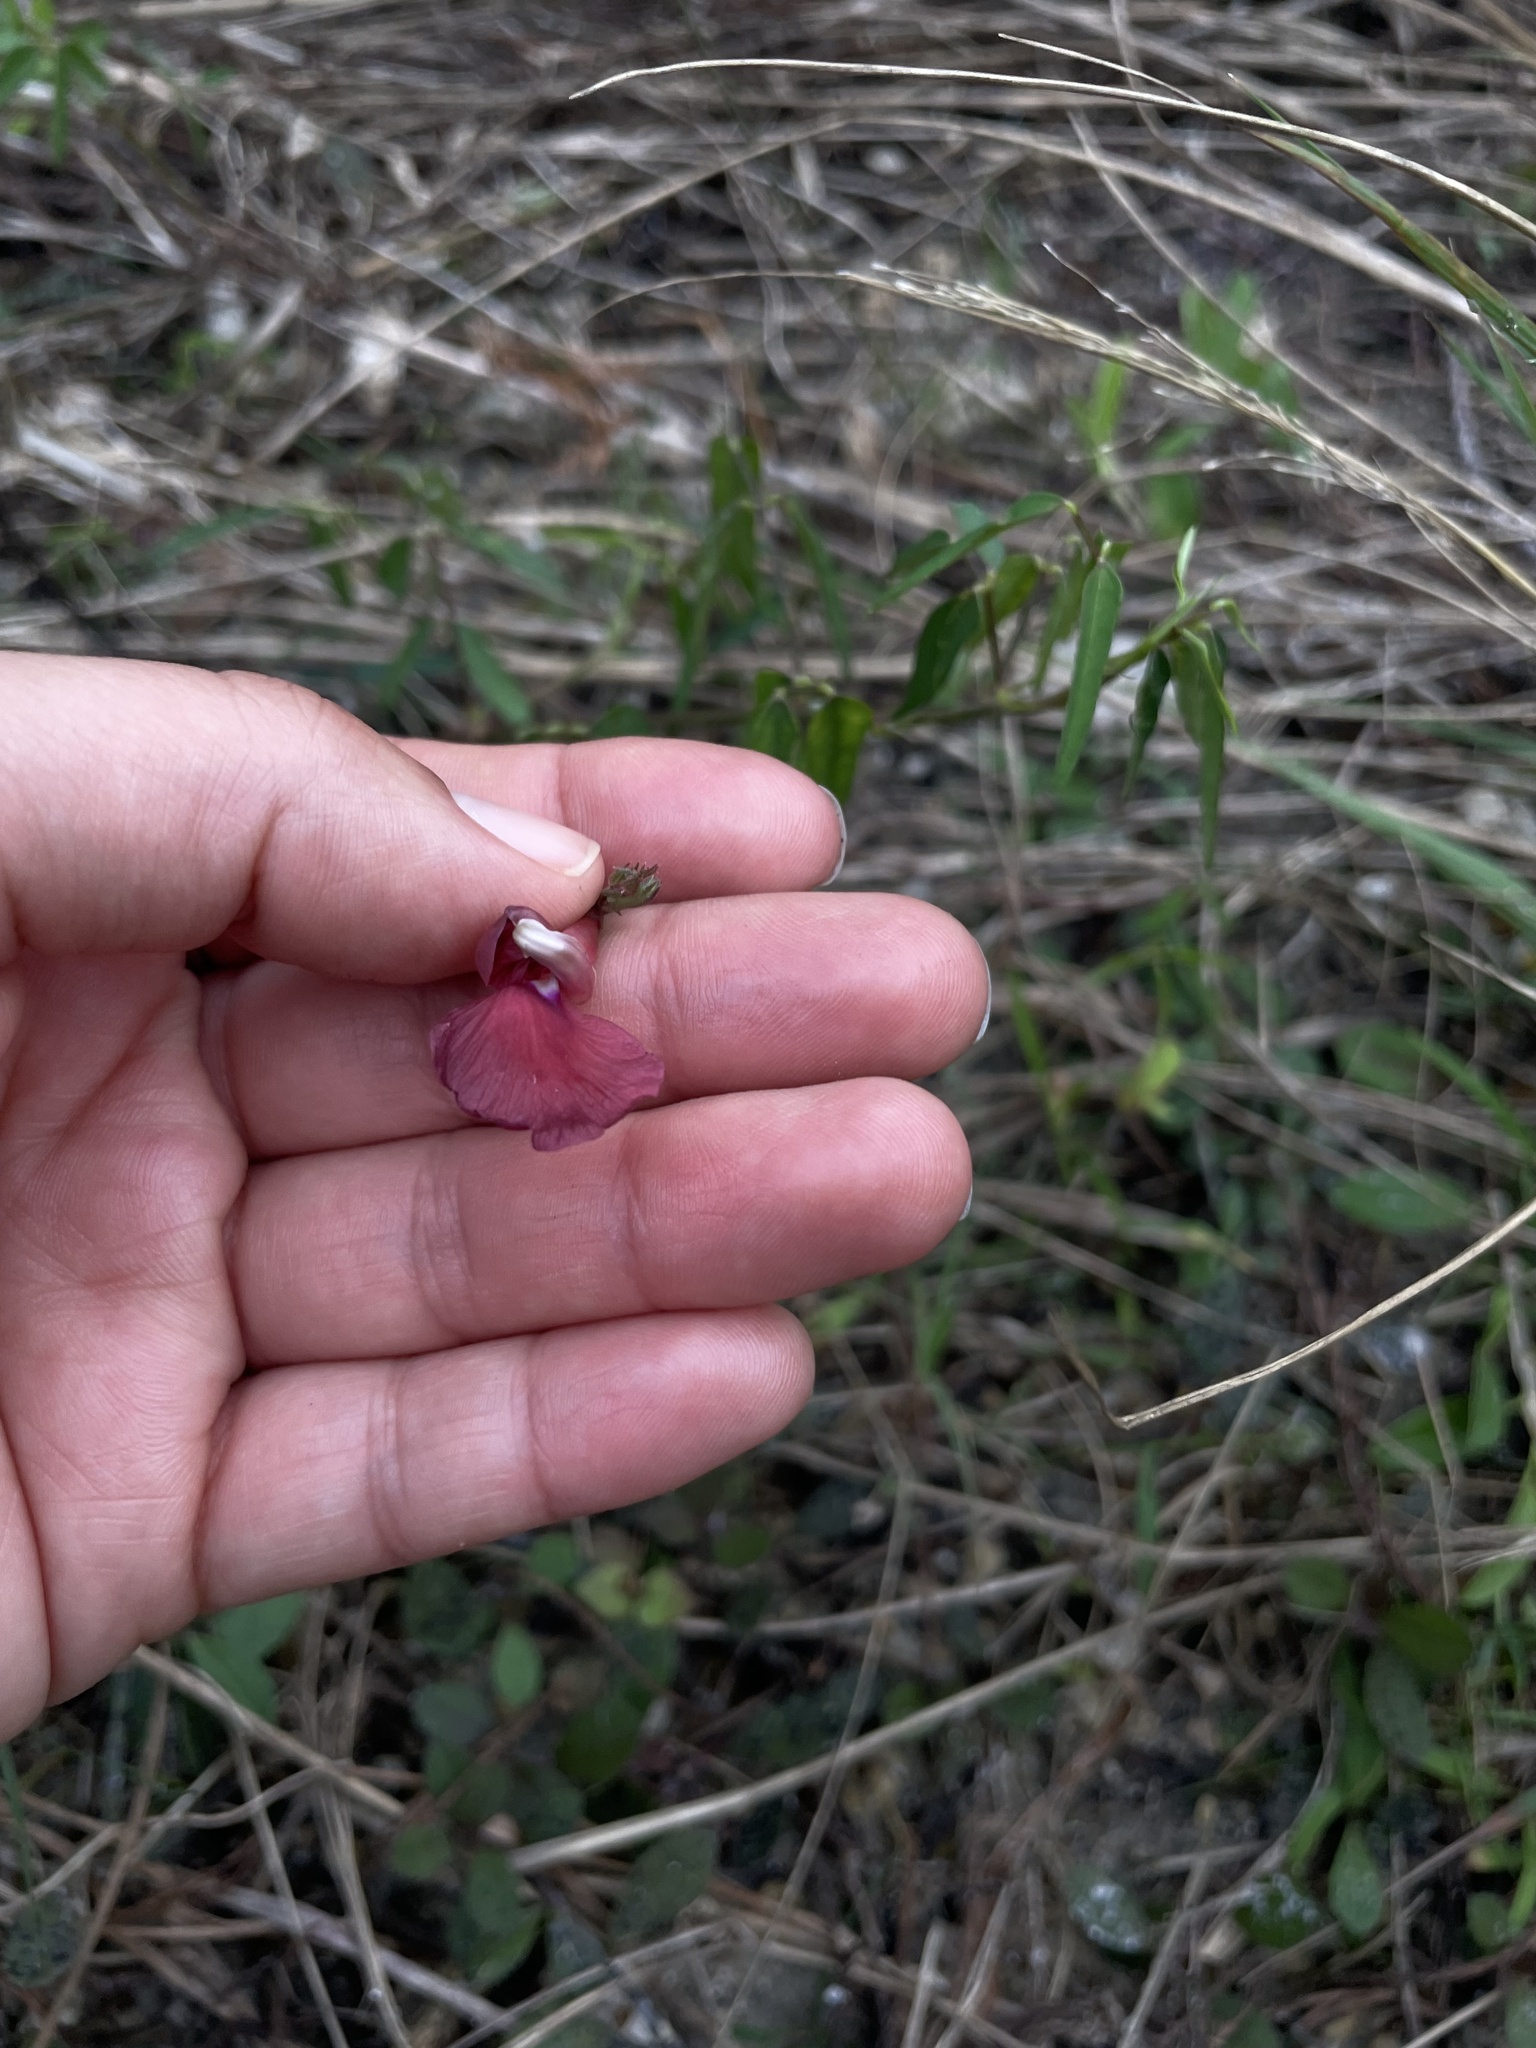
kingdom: Plantae
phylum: Tracheophyta
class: Magnoliopsida
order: Fabales
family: Fabaceae
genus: Macroptilium
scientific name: Macroptilium lathyroides
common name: Wild bushbean
